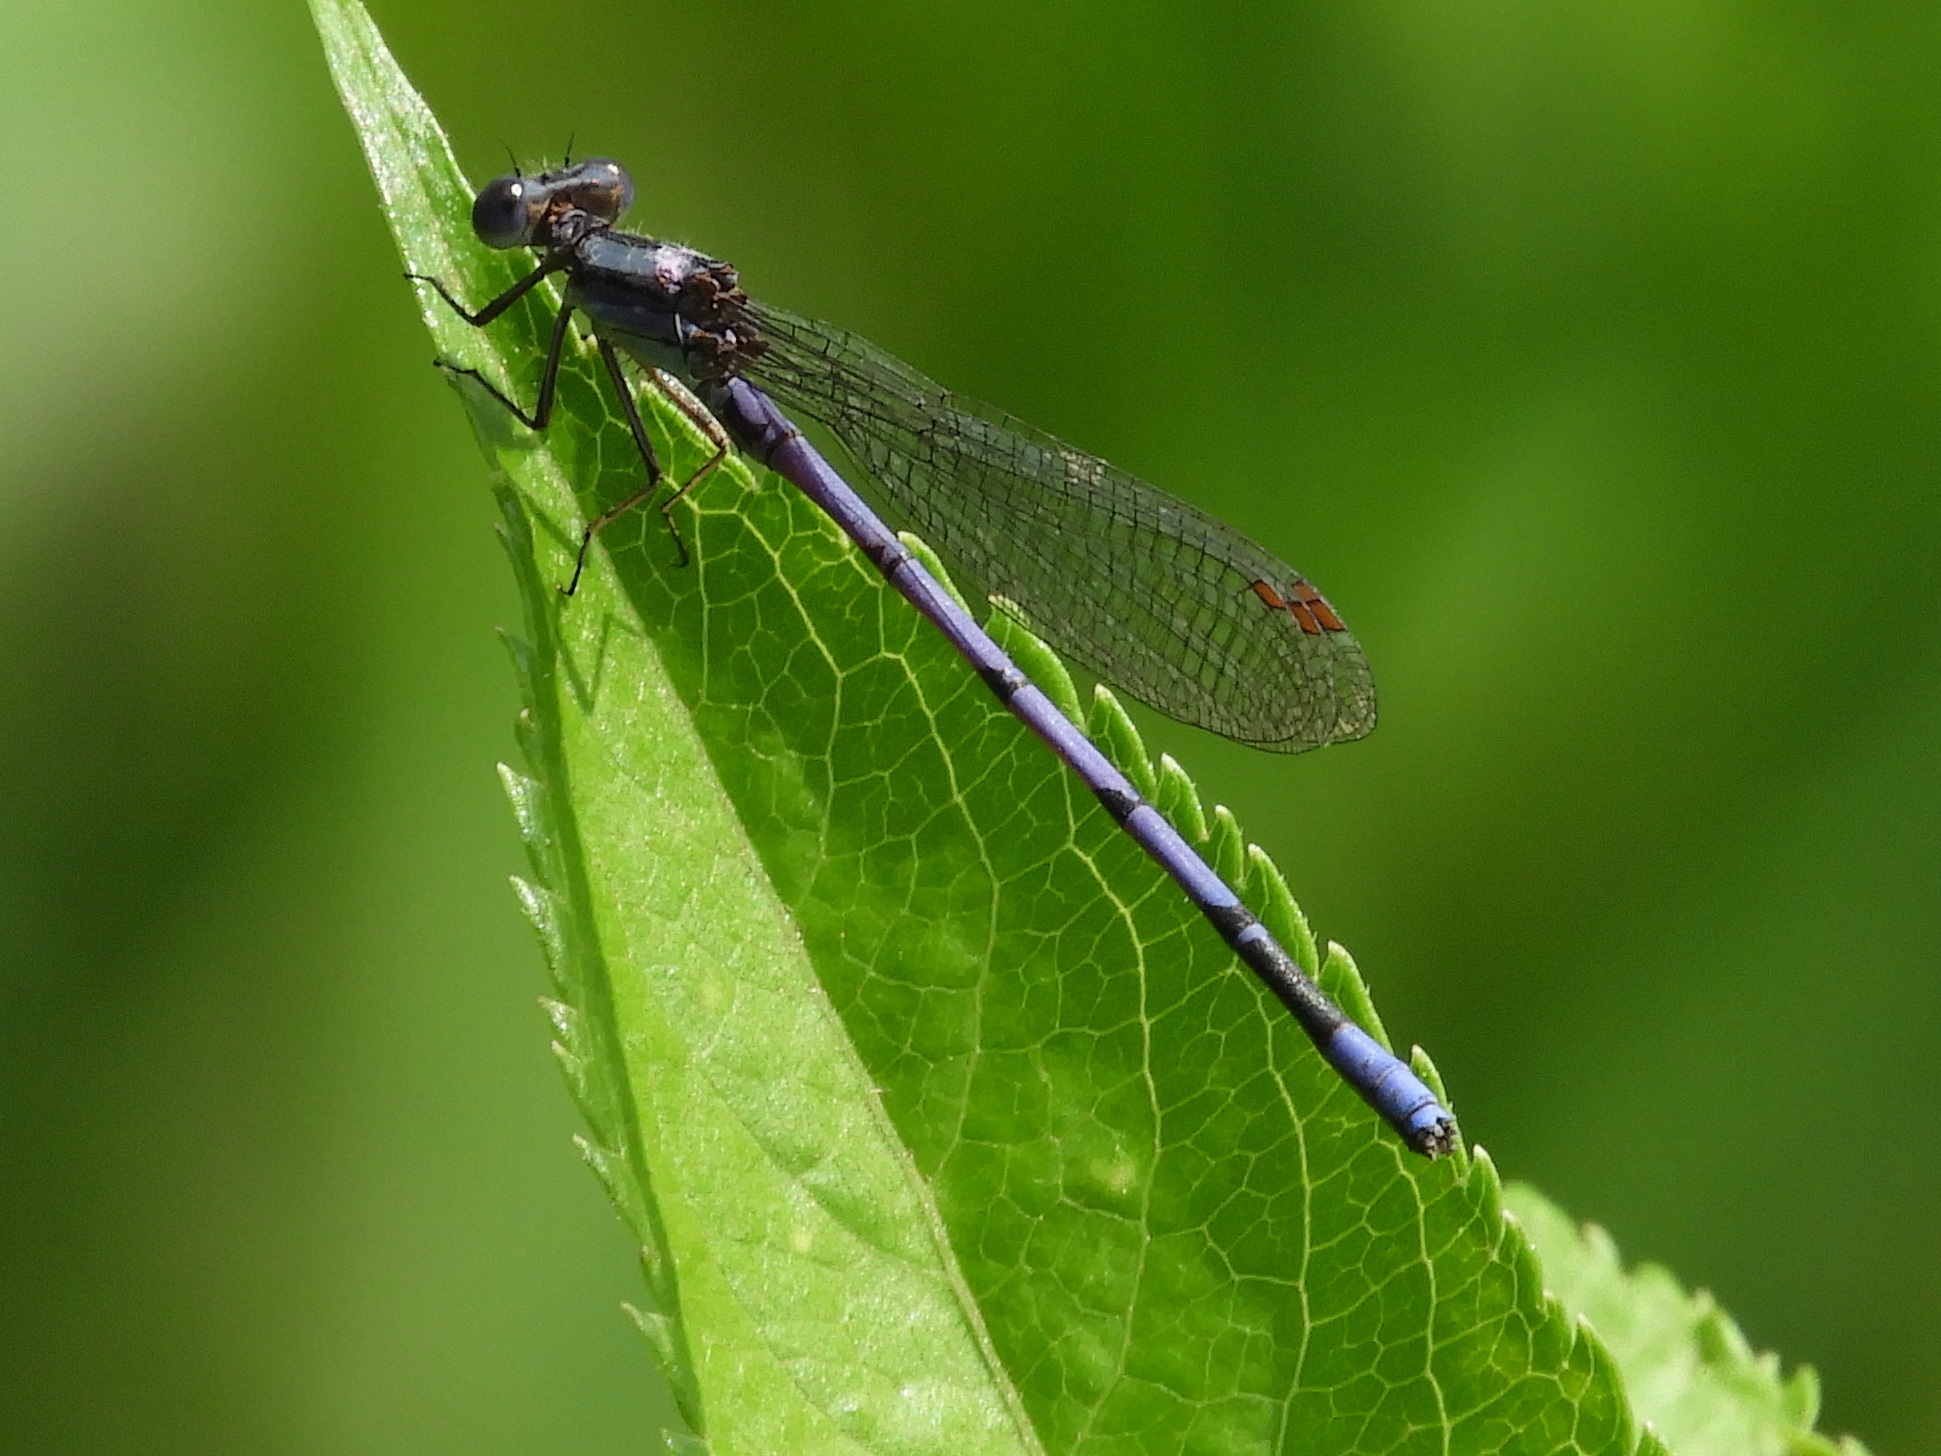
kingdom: Animalia
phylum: Arthropoda
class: Insecta
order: Odonata
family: Coenagrionidae
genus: Argia
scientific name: Argia fumipennis
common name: Variable dancer
